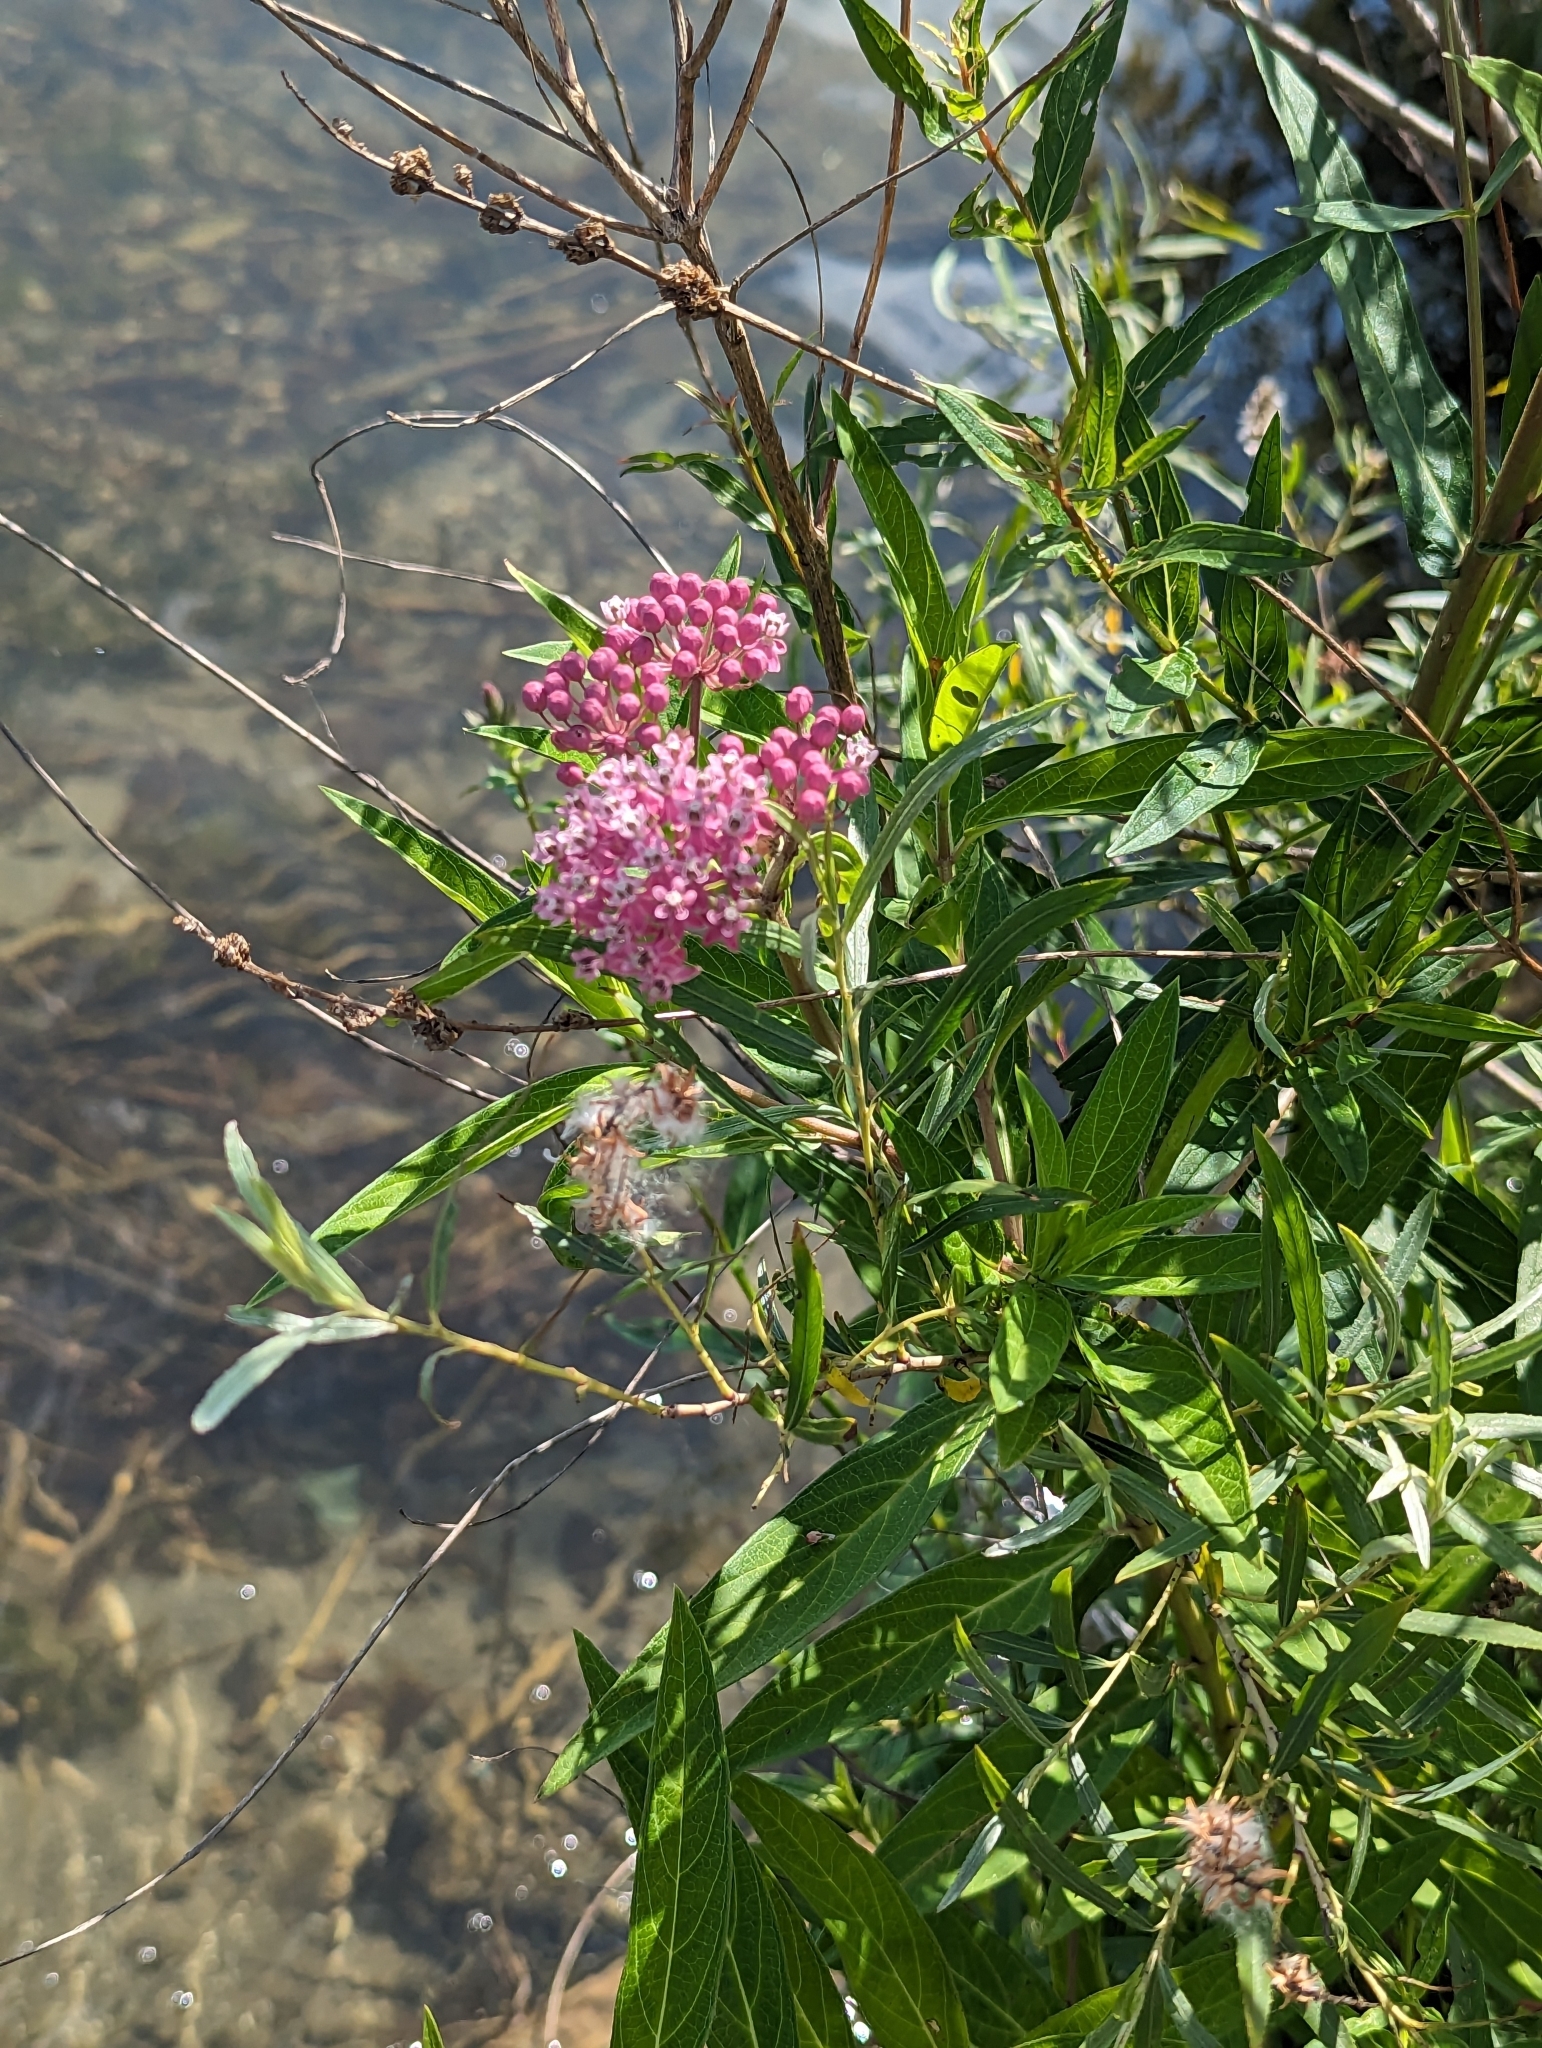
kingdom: Plantae
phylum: Tracheophyta
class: Magnoliopsida
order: Gentianales
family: Apocynaceae
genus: Asclepias
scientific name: Asclepias incarnata
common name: Swamp milkweed
